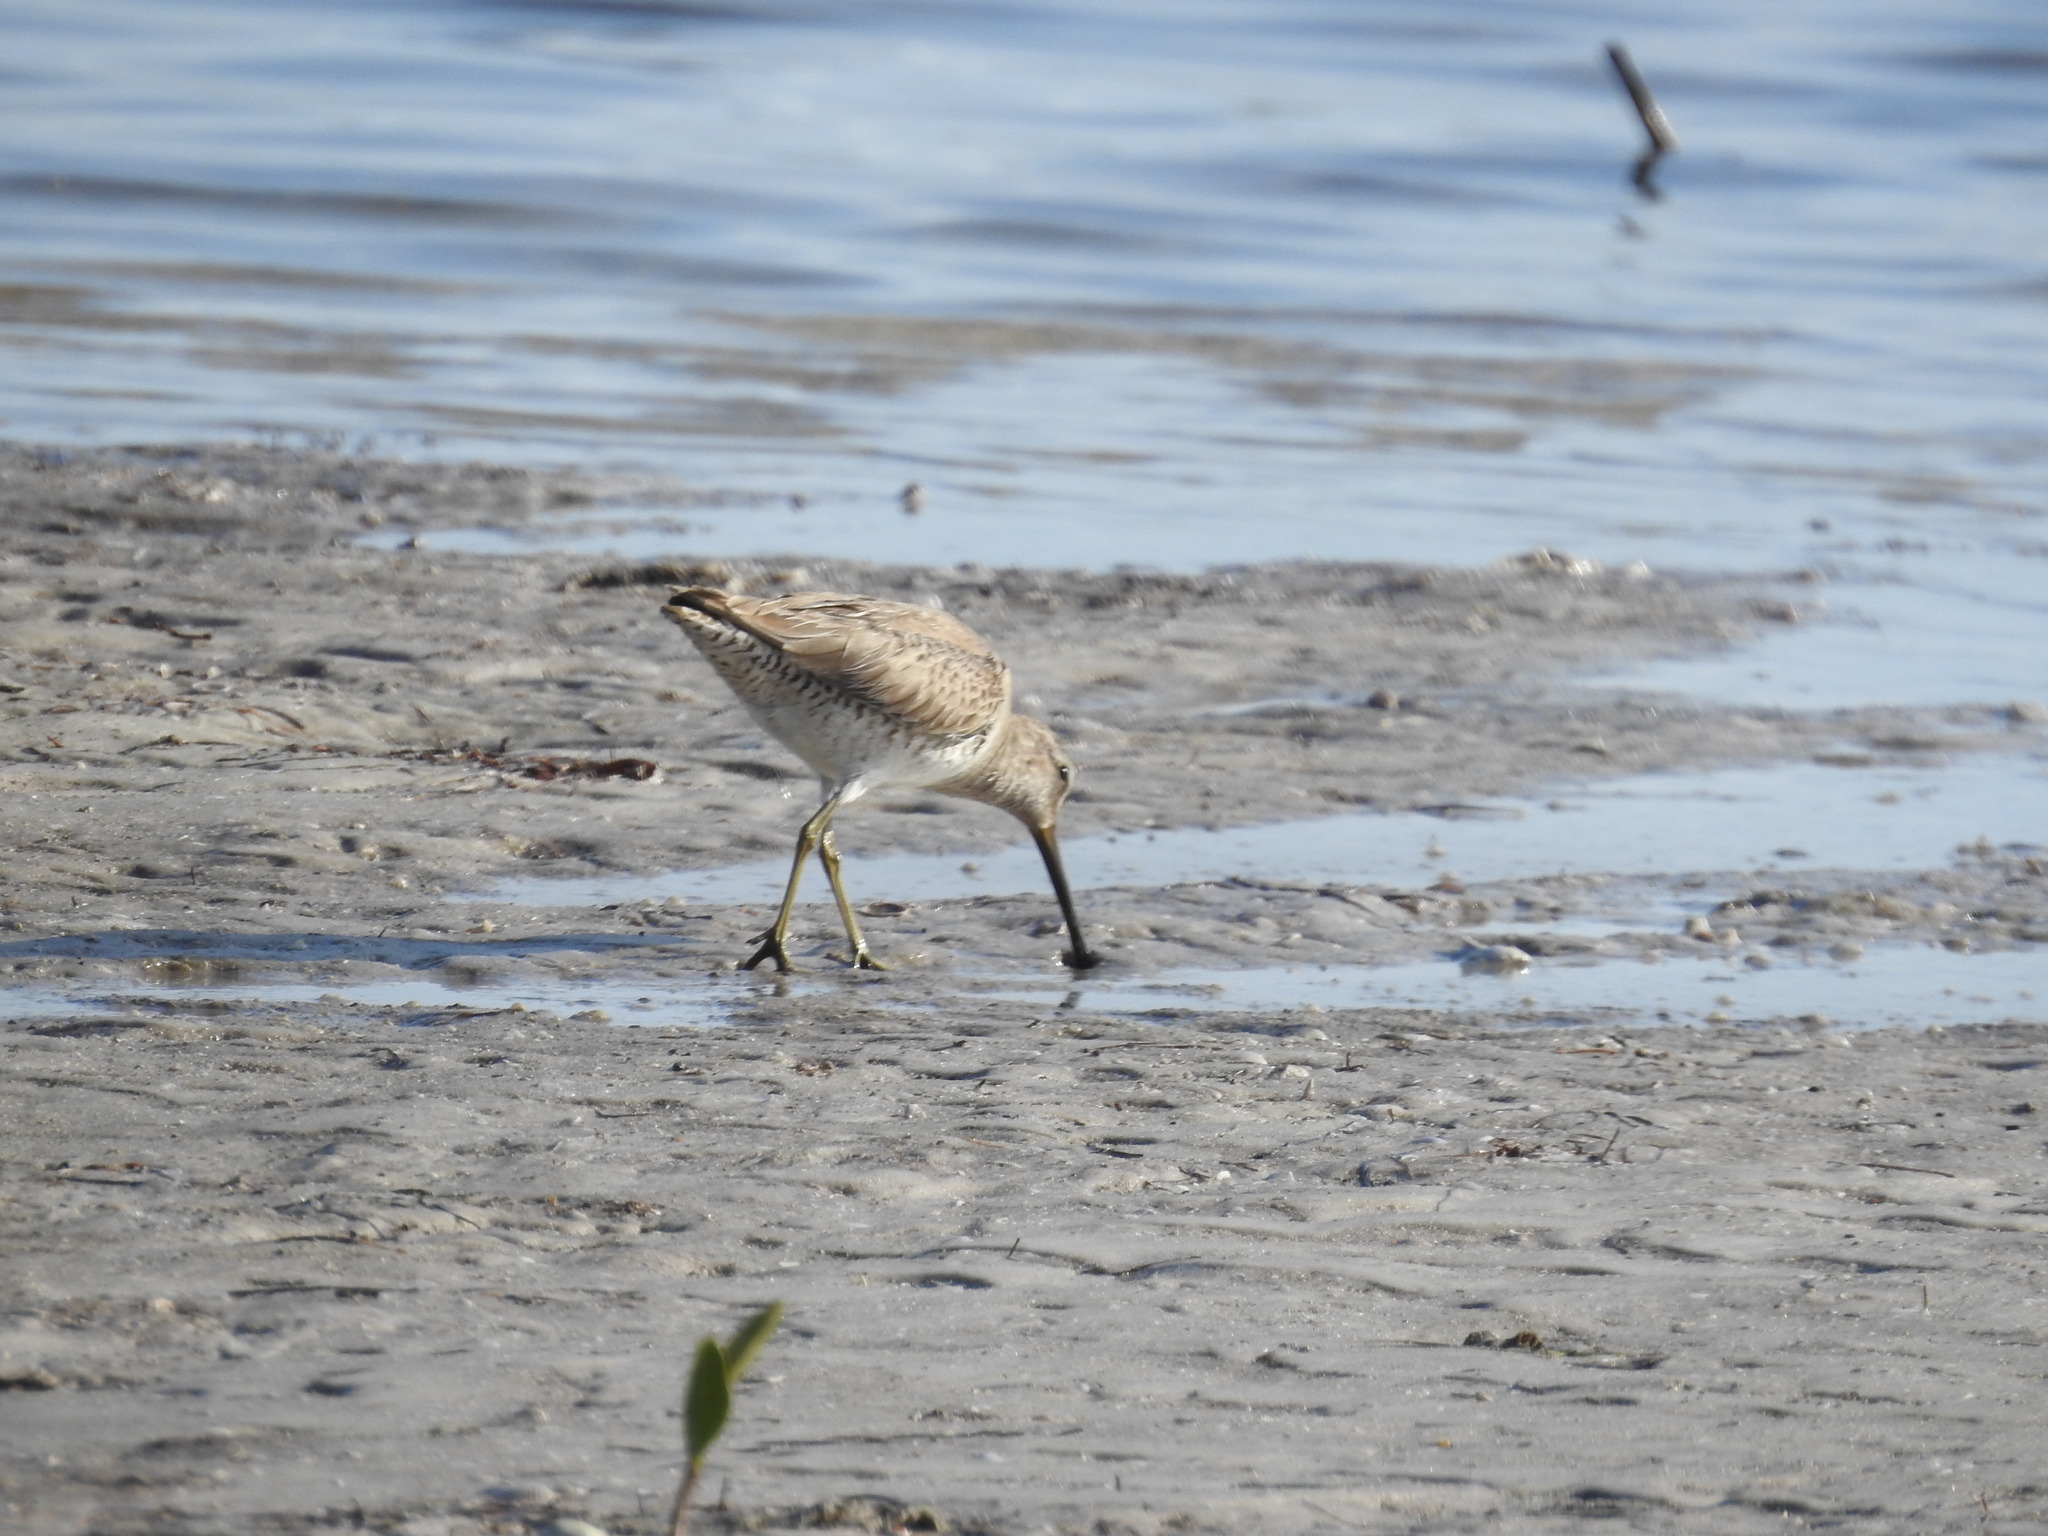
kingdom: Animalia
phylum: Chordata
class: Aves
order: Charadriiformes
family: Scolopacidae
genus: Limnodromus
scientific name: Limnodromus griseus
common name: Short-billed dowitcher
